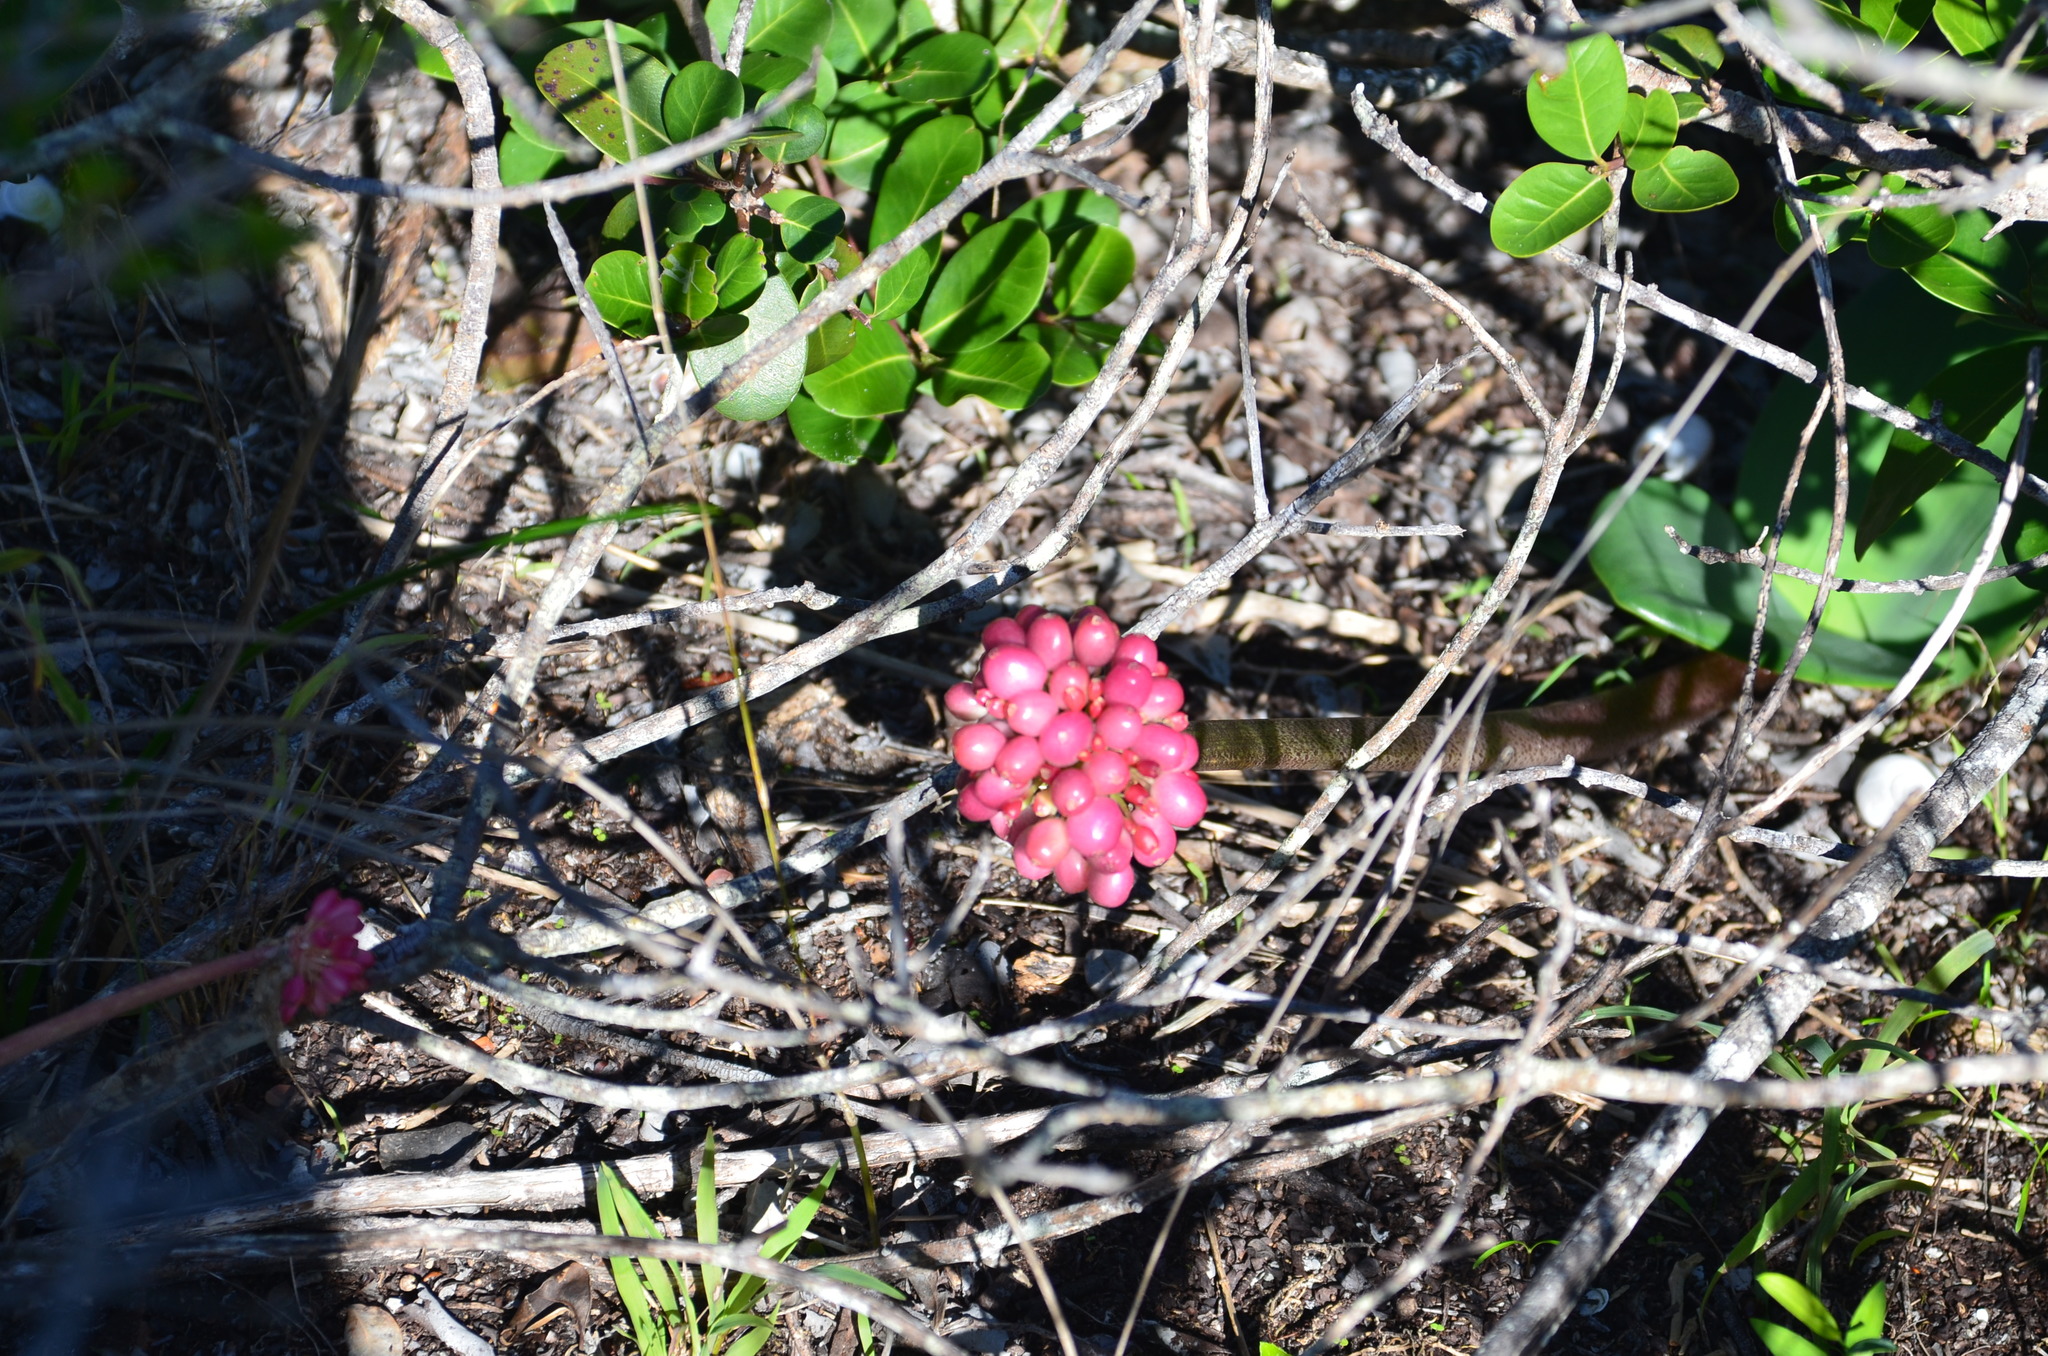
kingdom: Plantae
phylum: Tracheophyta
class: Liliopsida
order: Asparagales
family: Amaryllidaceae
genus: Haemanthus
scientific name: Haemanthus coccineus
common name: Cape-tulip
